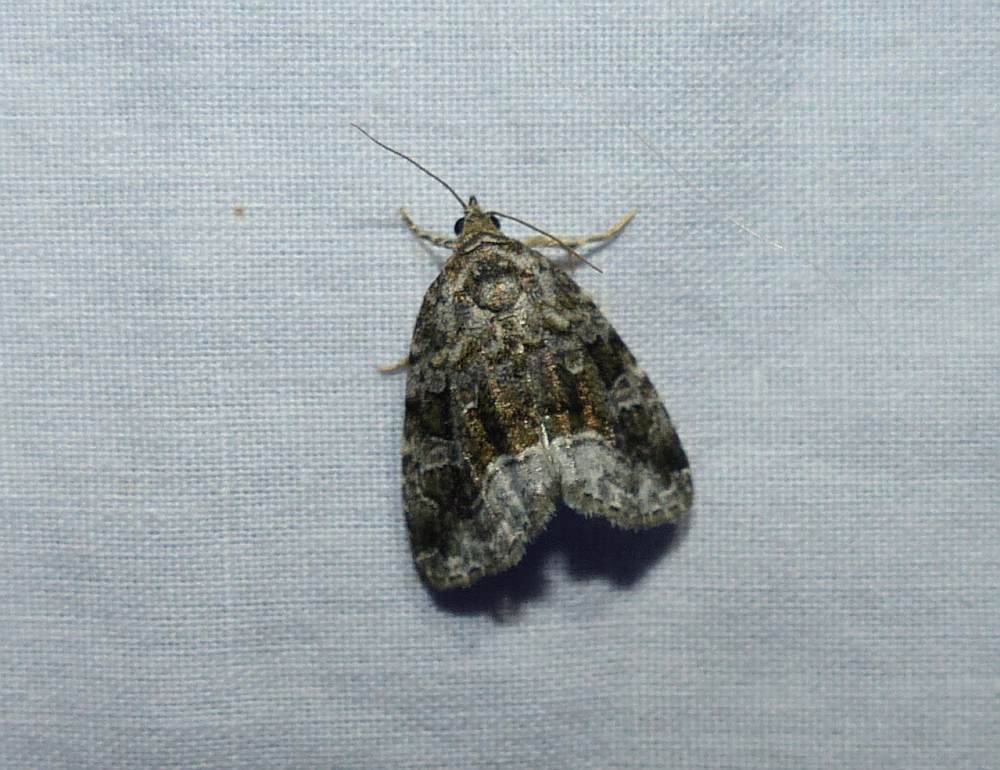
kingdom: Animalia
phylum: Arthropoda
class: Insecta
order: Lepidoptera
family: Noctuidae
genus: Protodeltote
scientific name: Protodeltote muscosula
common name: Large mossy glyph
